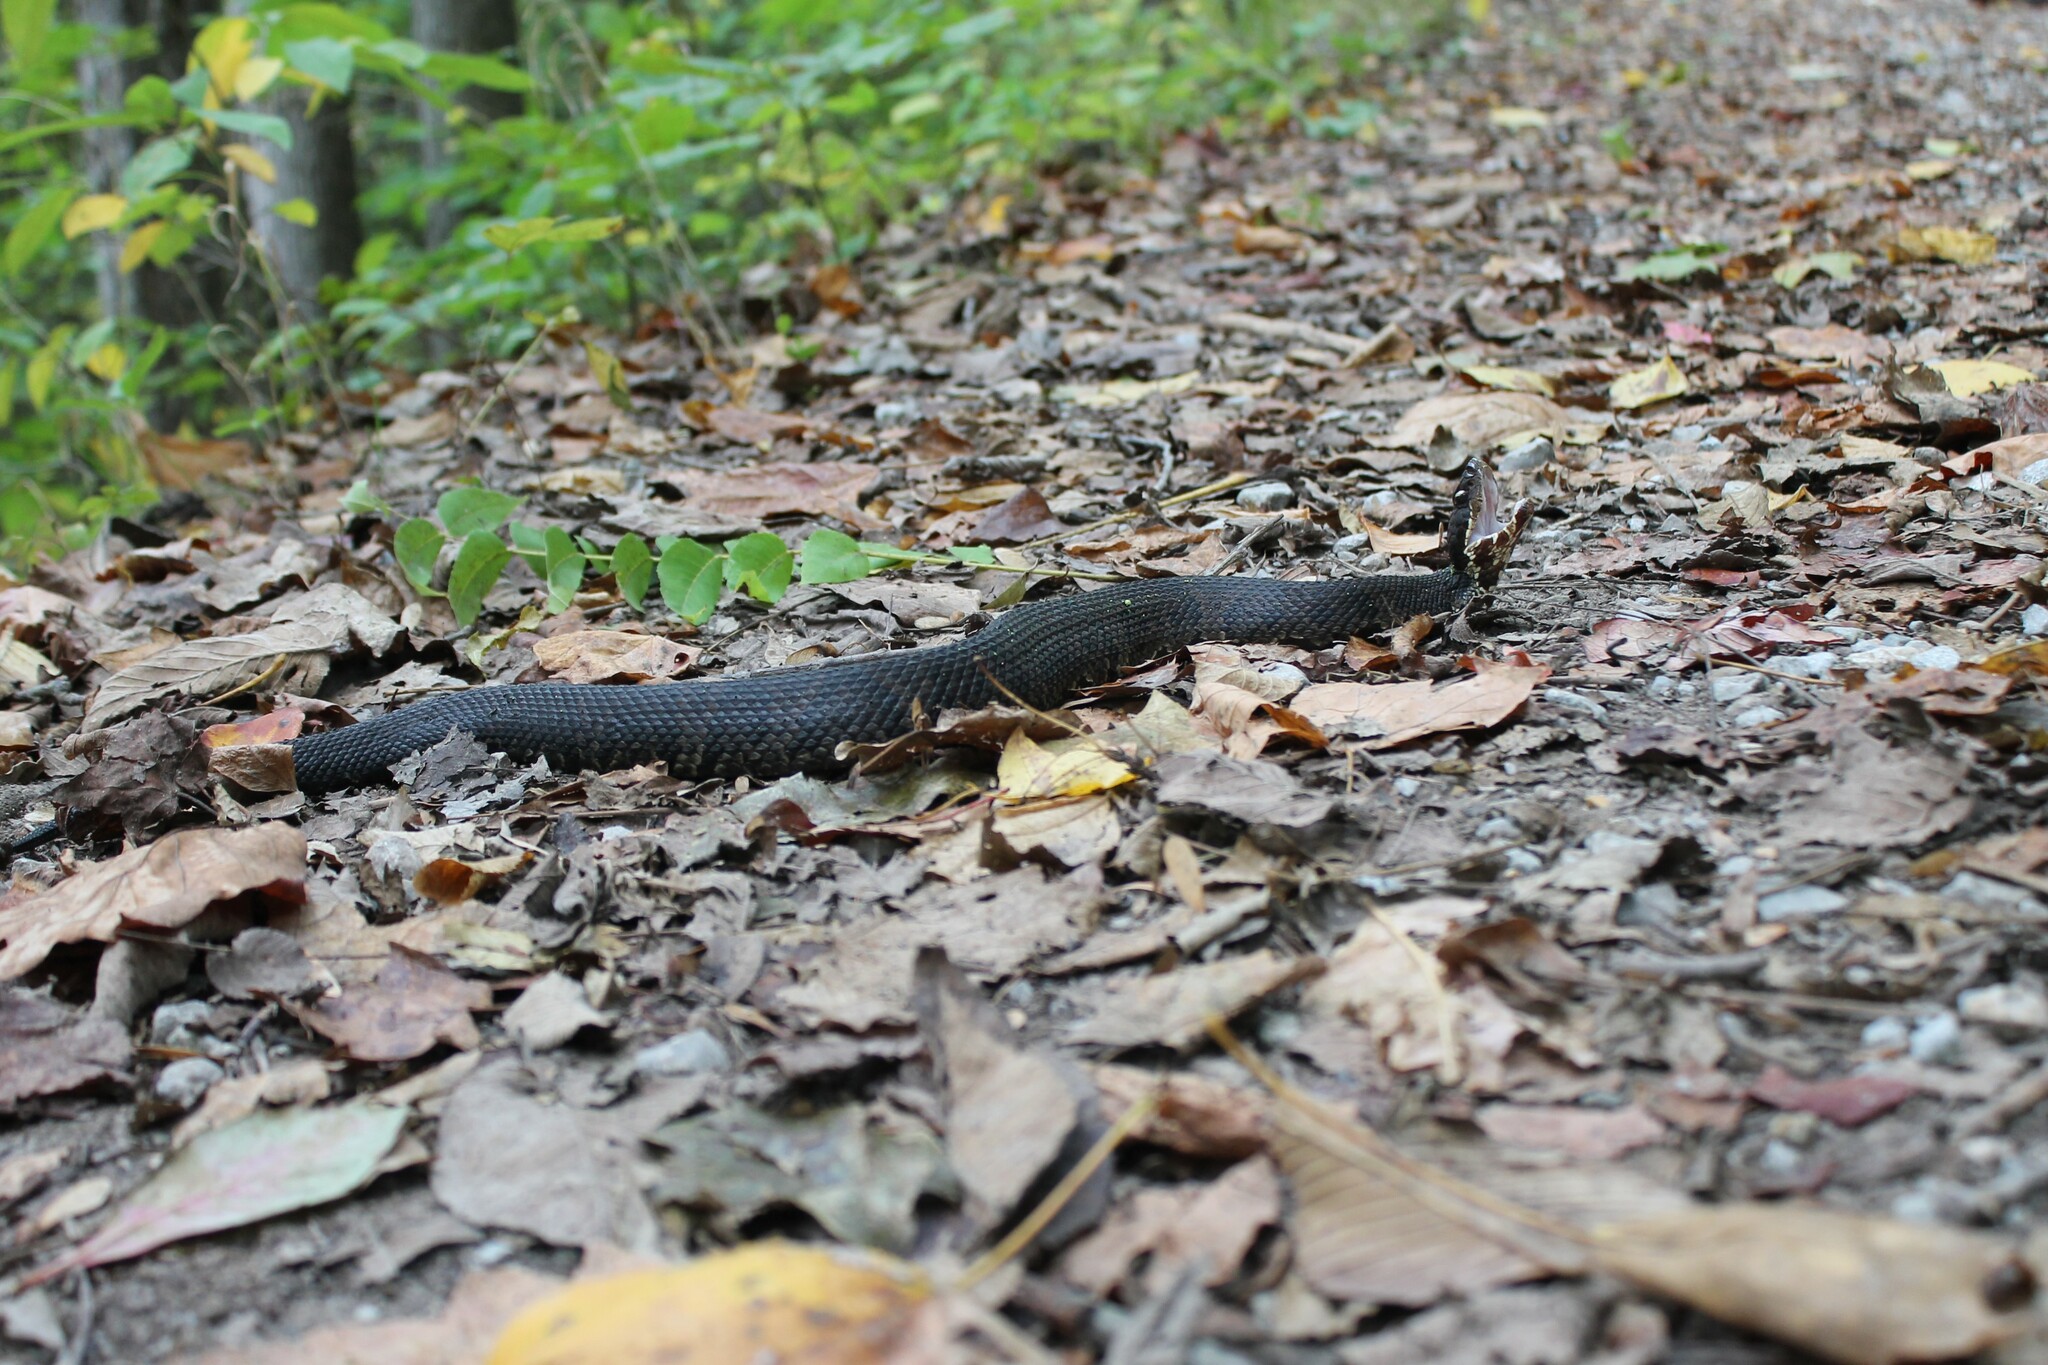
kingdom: Animalia
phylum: Chordata
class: Squamata
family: Viperidae
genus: Agkistrodon
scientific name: Agkistrodon piscivorus
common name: Cottonmouth
